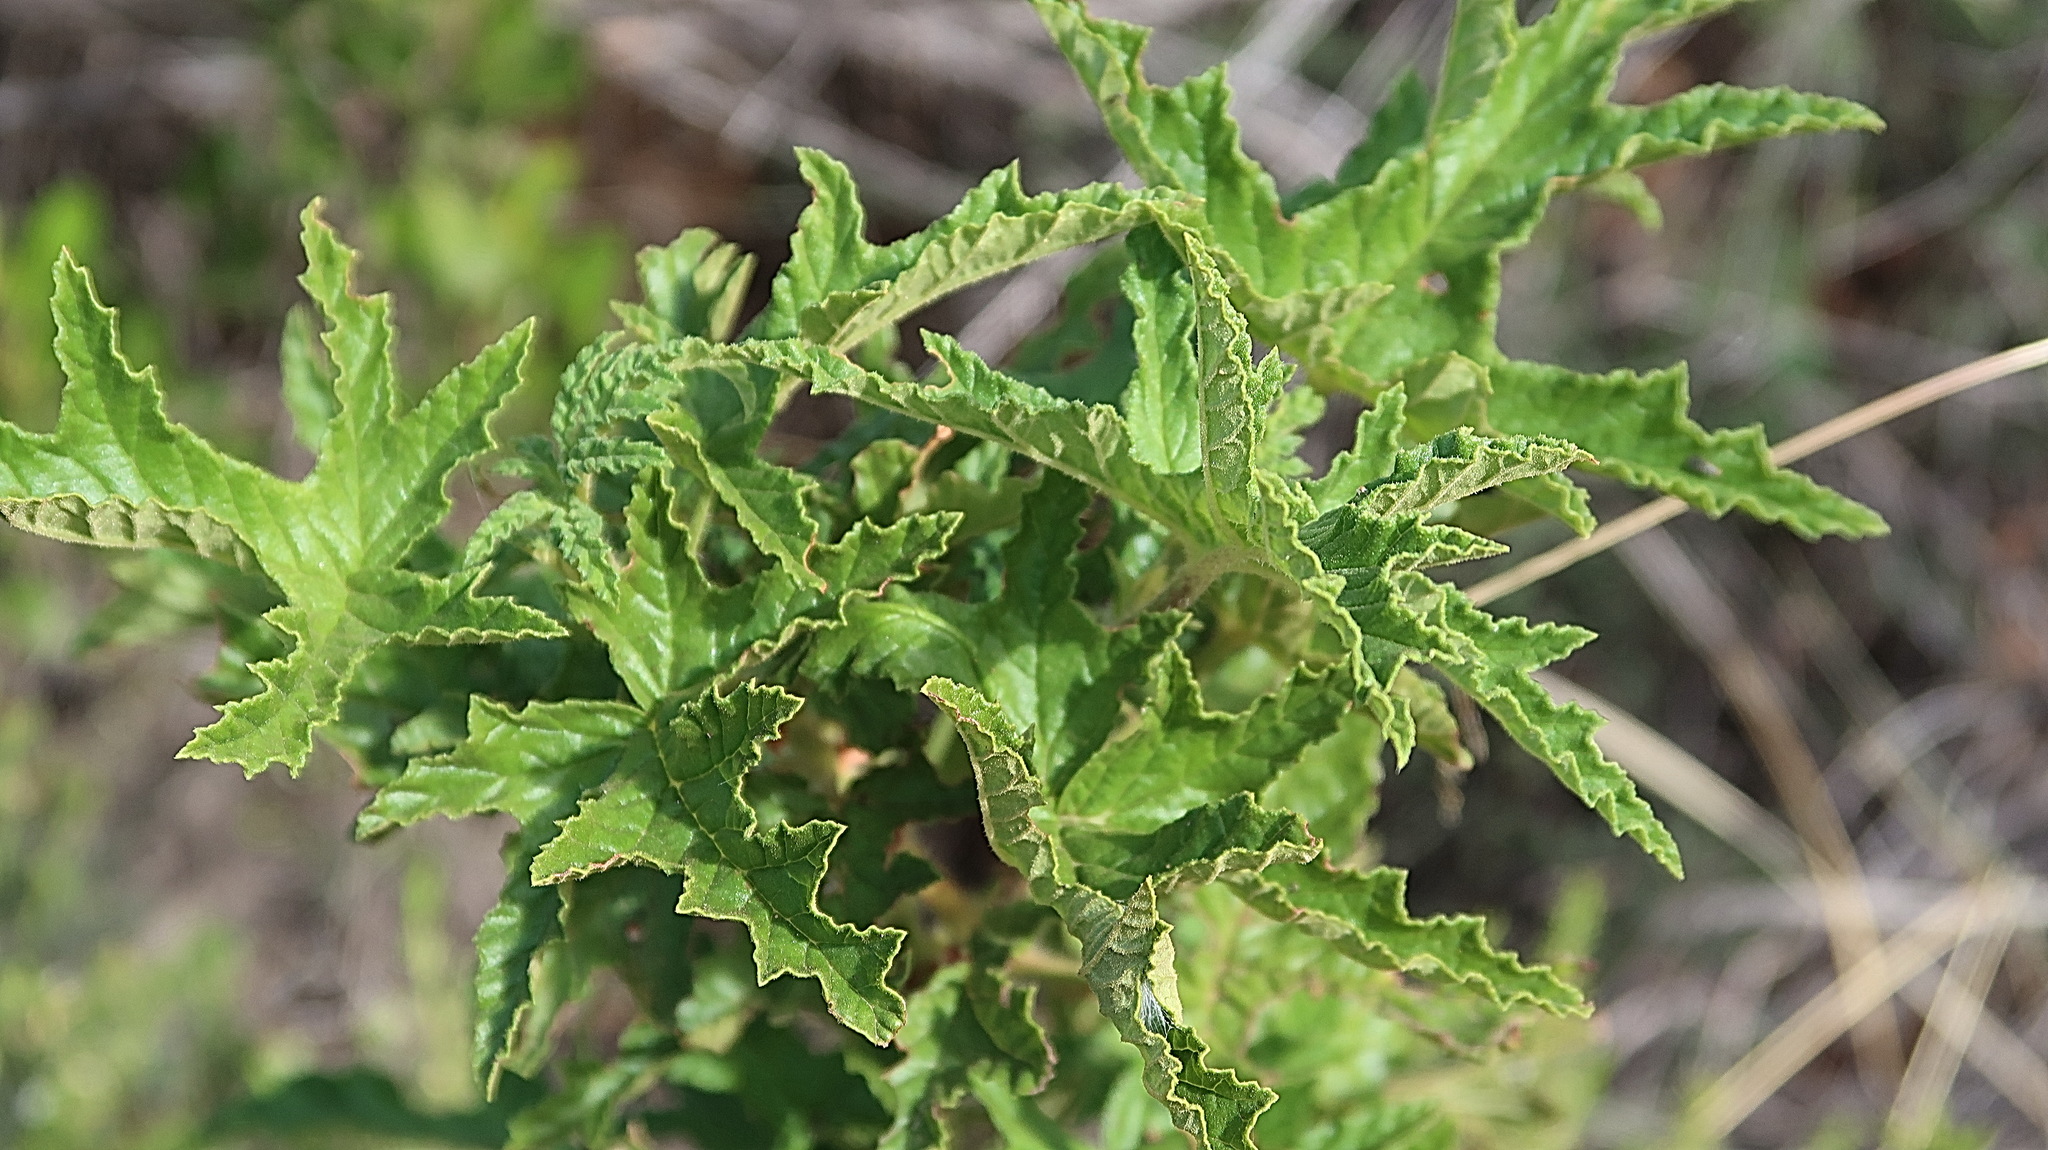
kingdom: Plantae
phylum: Tracheophyta
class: Magnoliopsida
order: Geraniales
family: Geraniaceae
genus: Pelargonium
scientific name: Pelargonium glutinosum
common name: Pheasant-foot geranium
